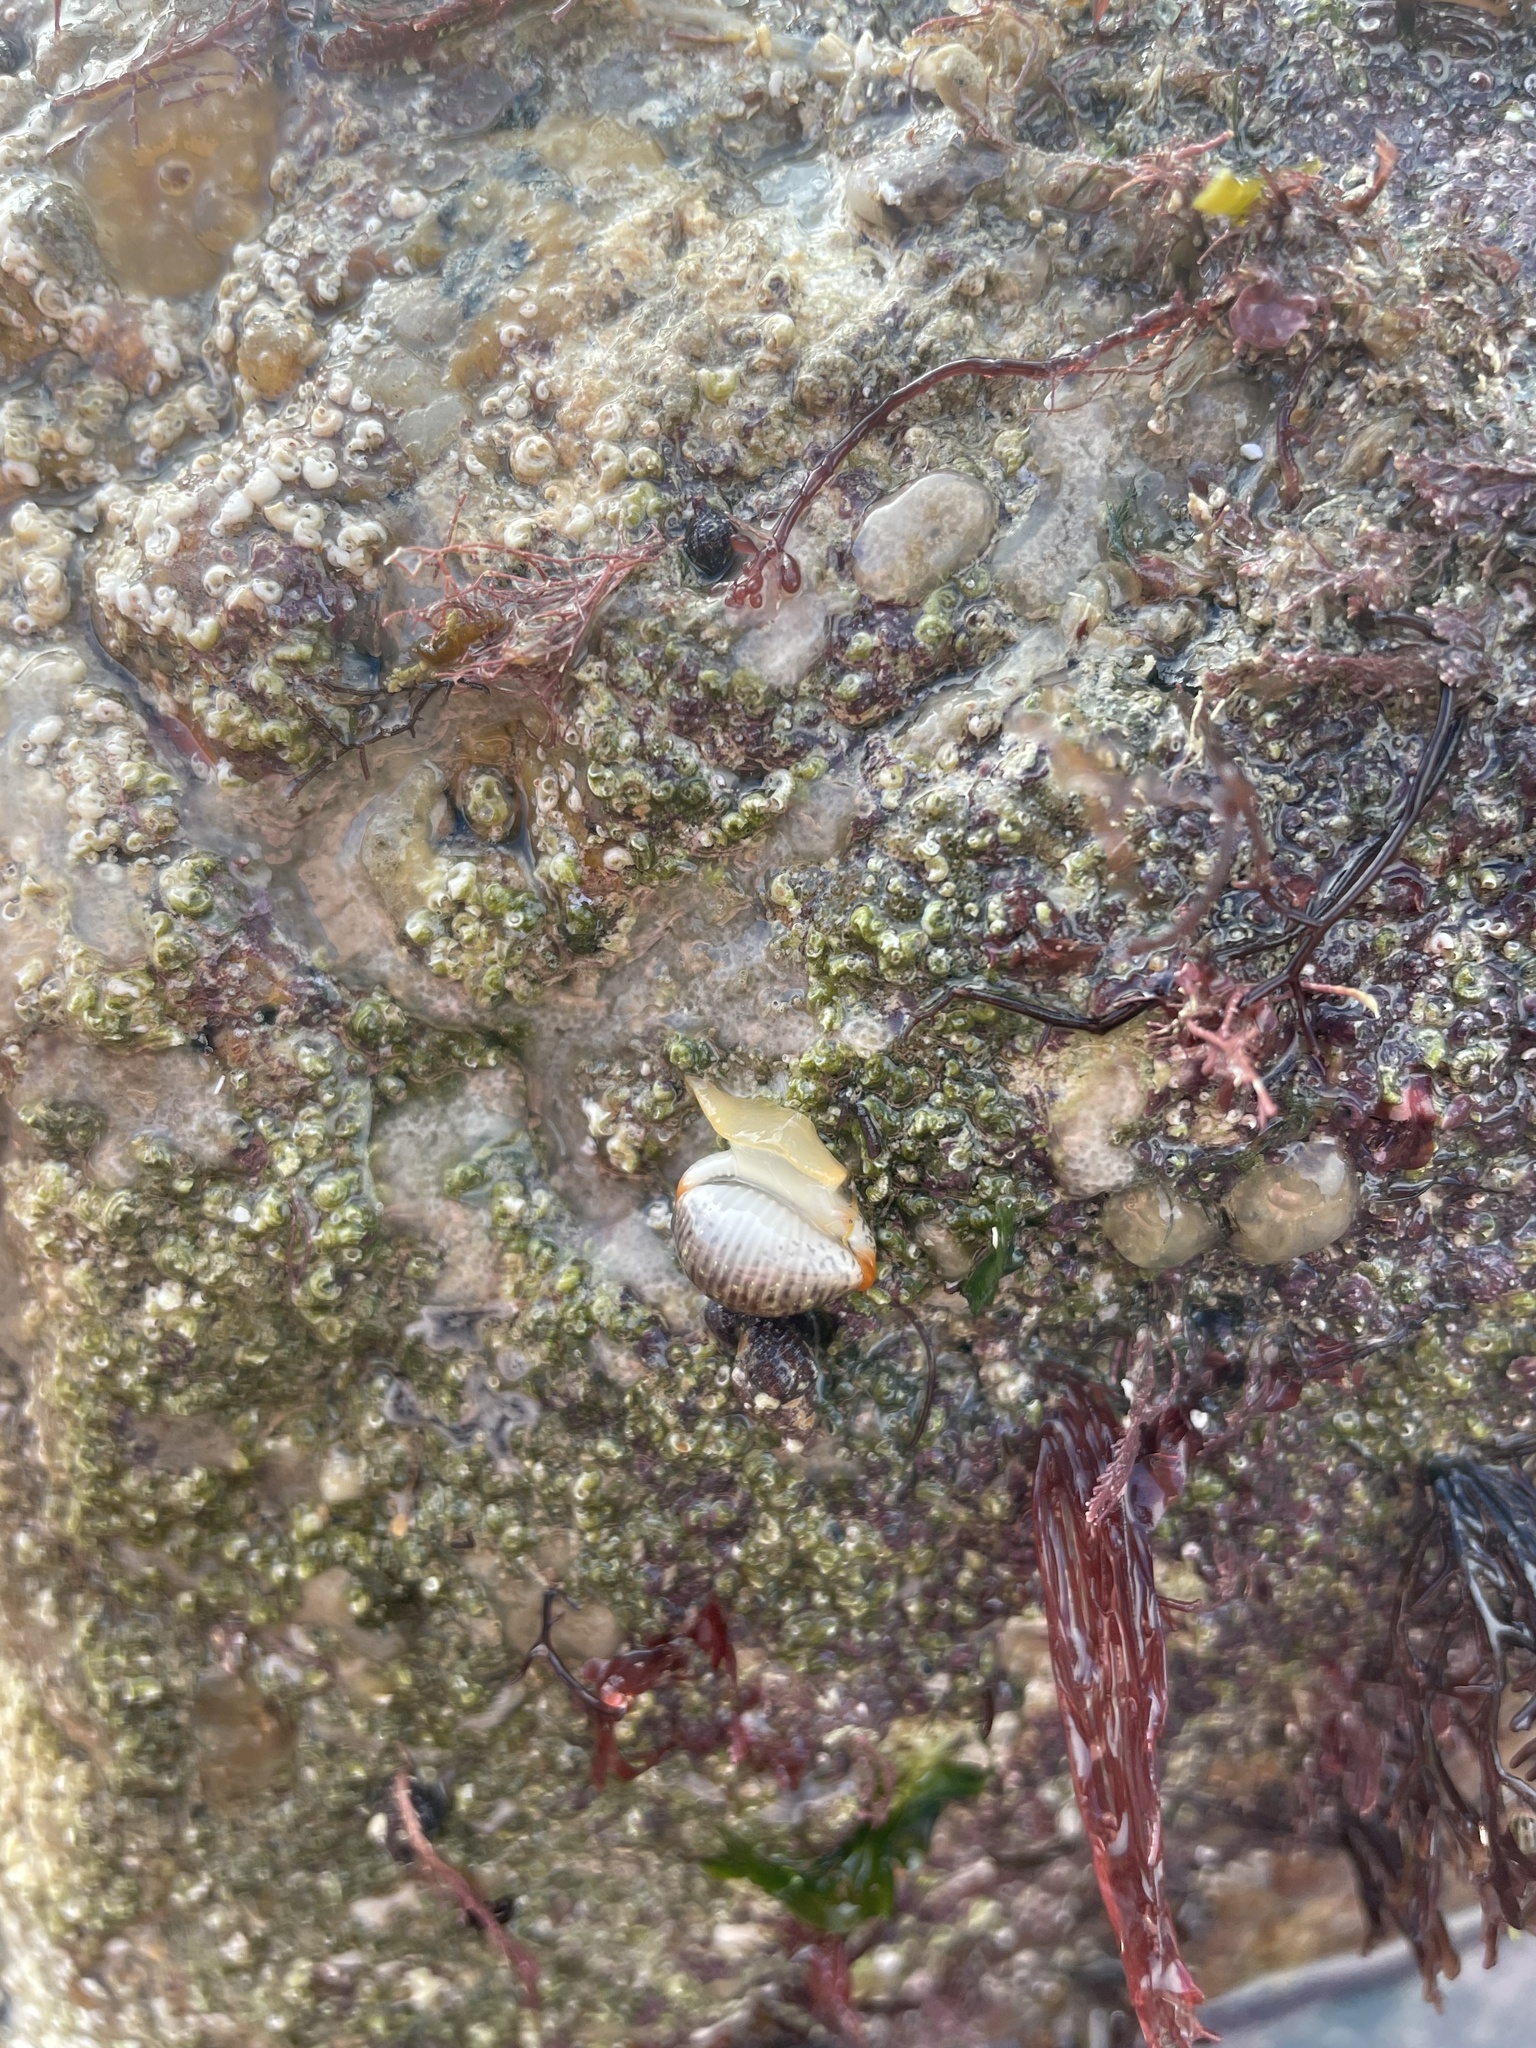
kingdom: Animalia
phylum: Mollusca
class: Gastropoda
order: Littorinimorpha
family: Triviidae
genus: Trivia
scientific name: Trivia monacha
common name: Spotted cowrie
